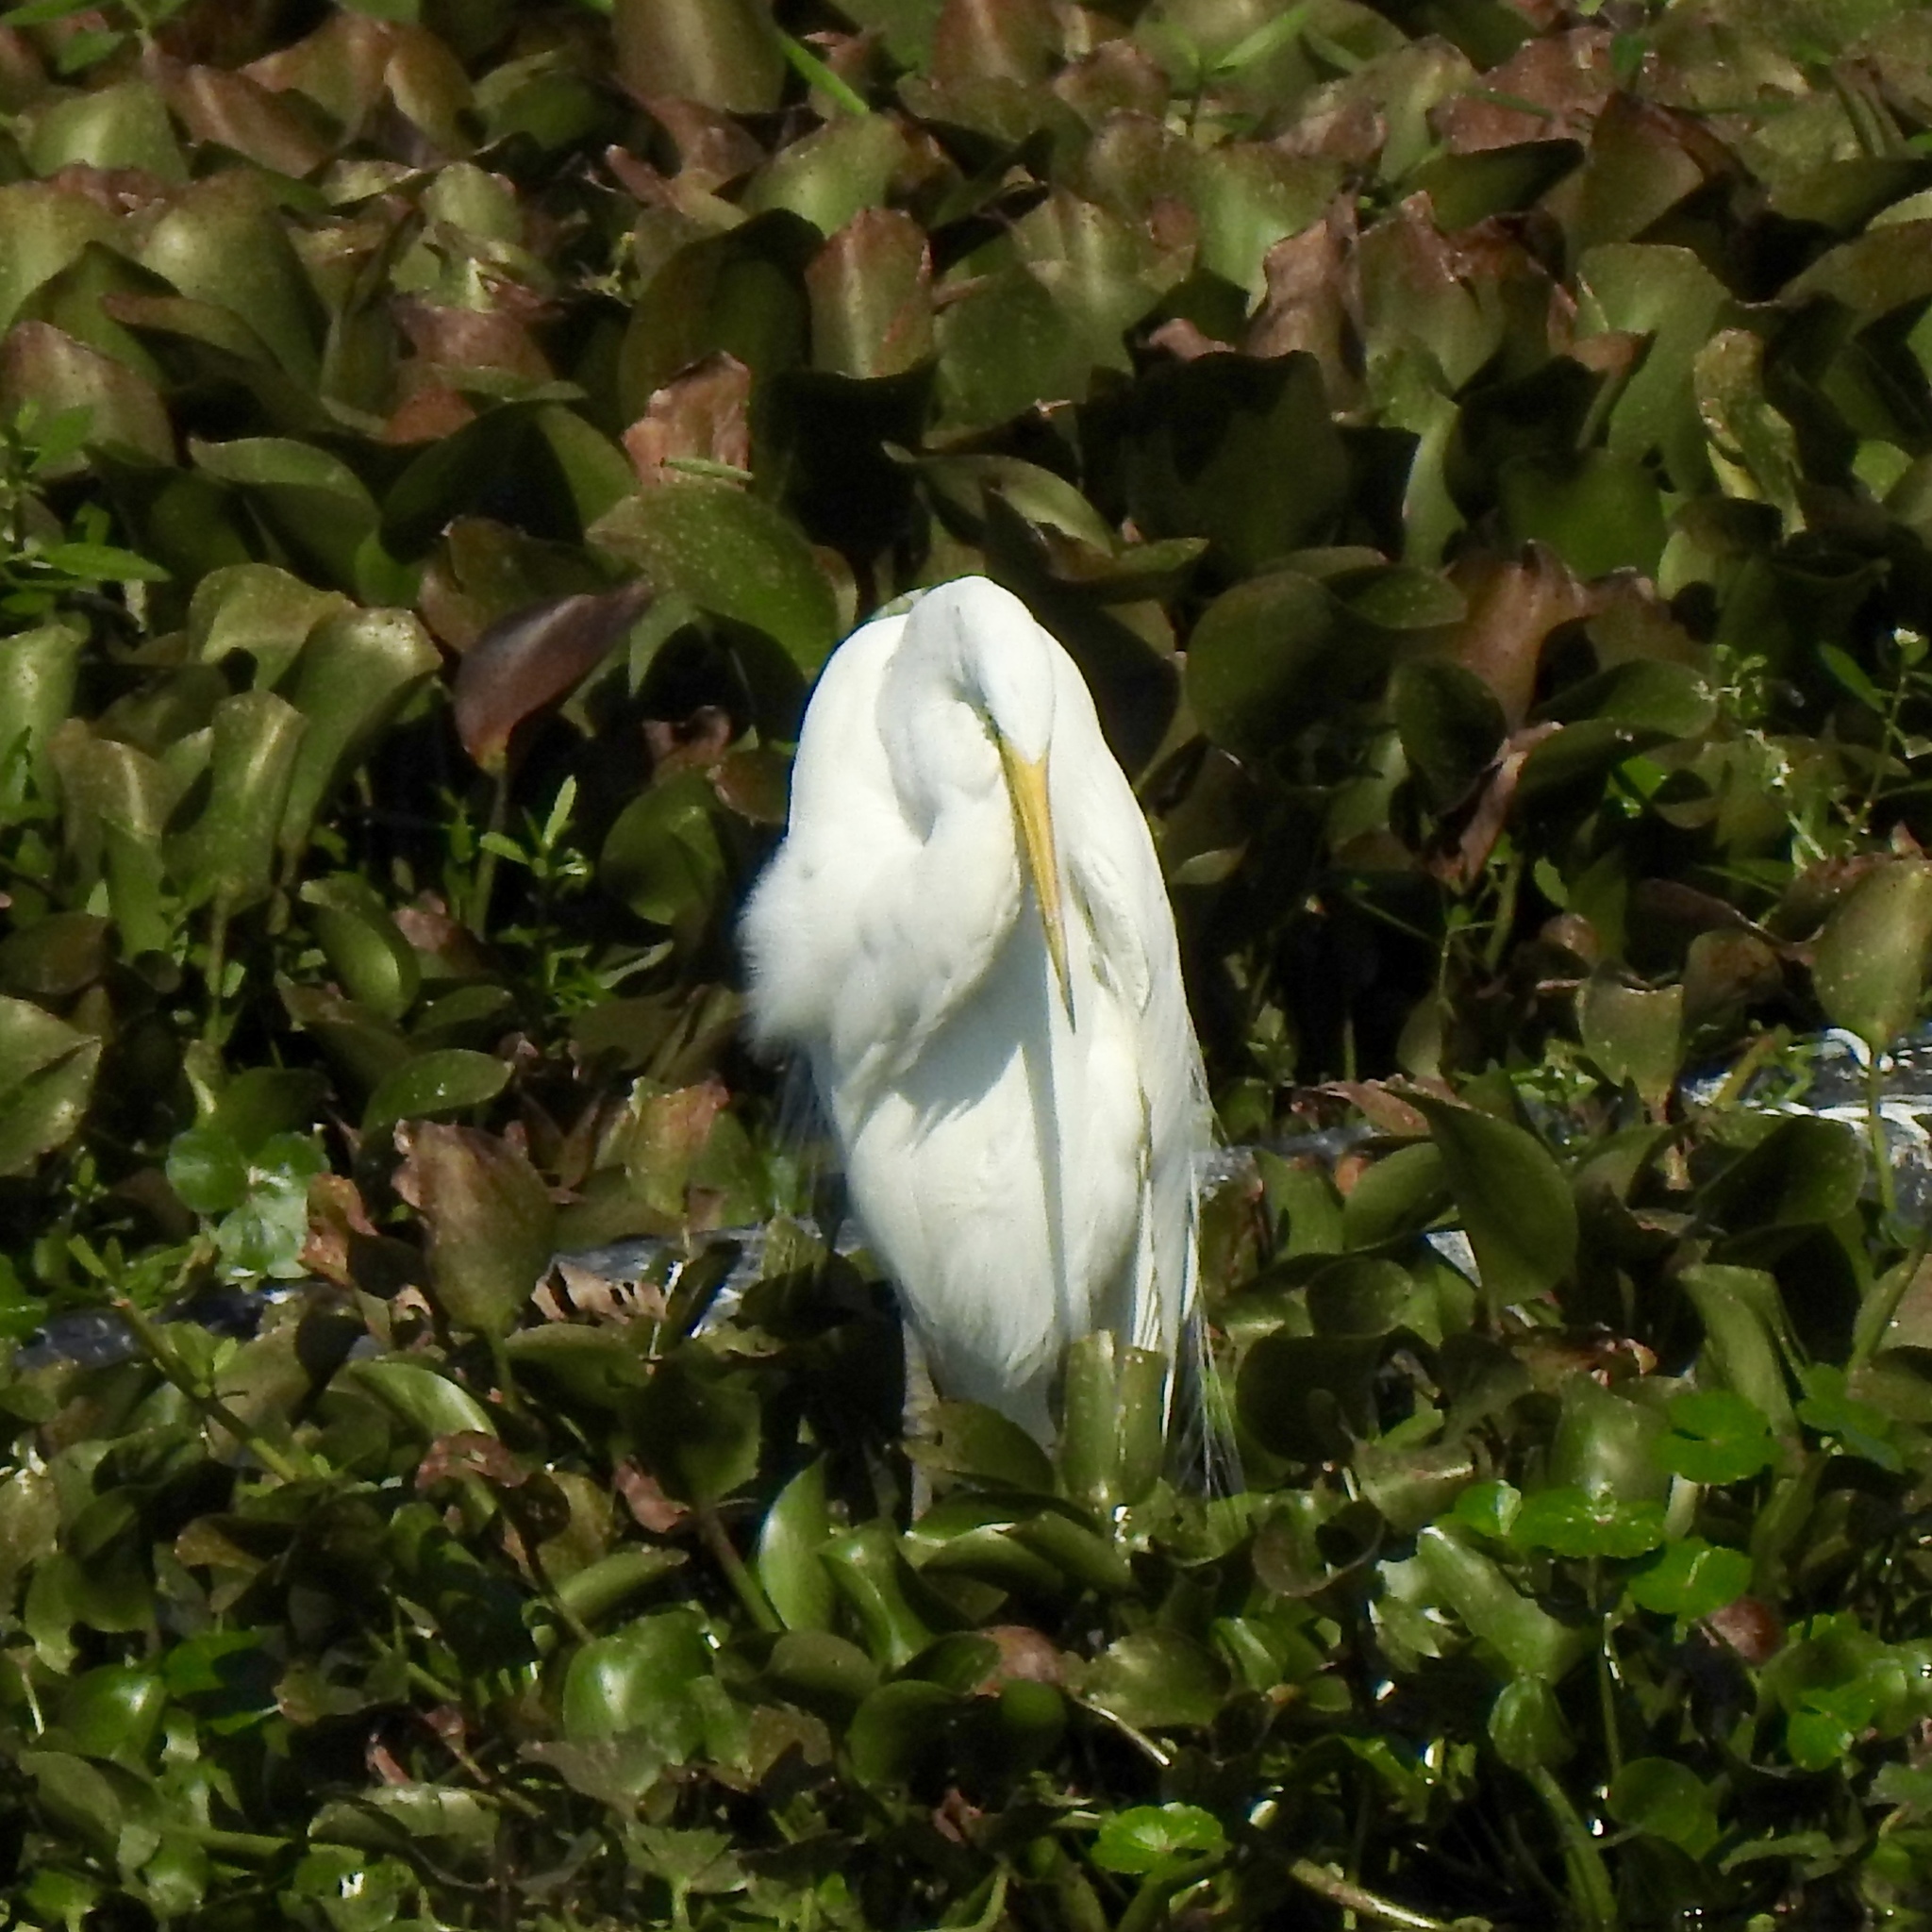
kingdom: Animalia
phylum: Chordata
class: Aves
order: Pelecaniformes
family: Ardeidae
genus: Ardea
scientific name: Ardea alba
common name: Great egret
